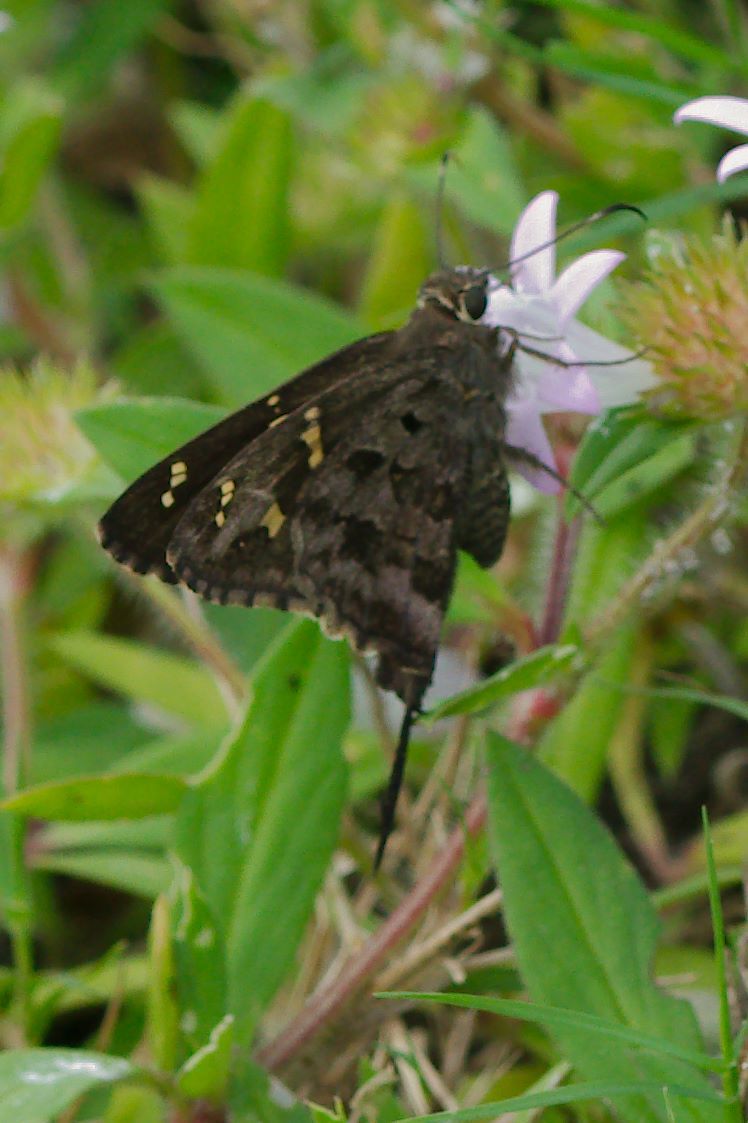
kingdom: Animalia
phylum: Arthropoda
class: Insecta
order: Lepidoptera
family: Hesperiidae
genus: Thorybes
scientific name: Thorybes
